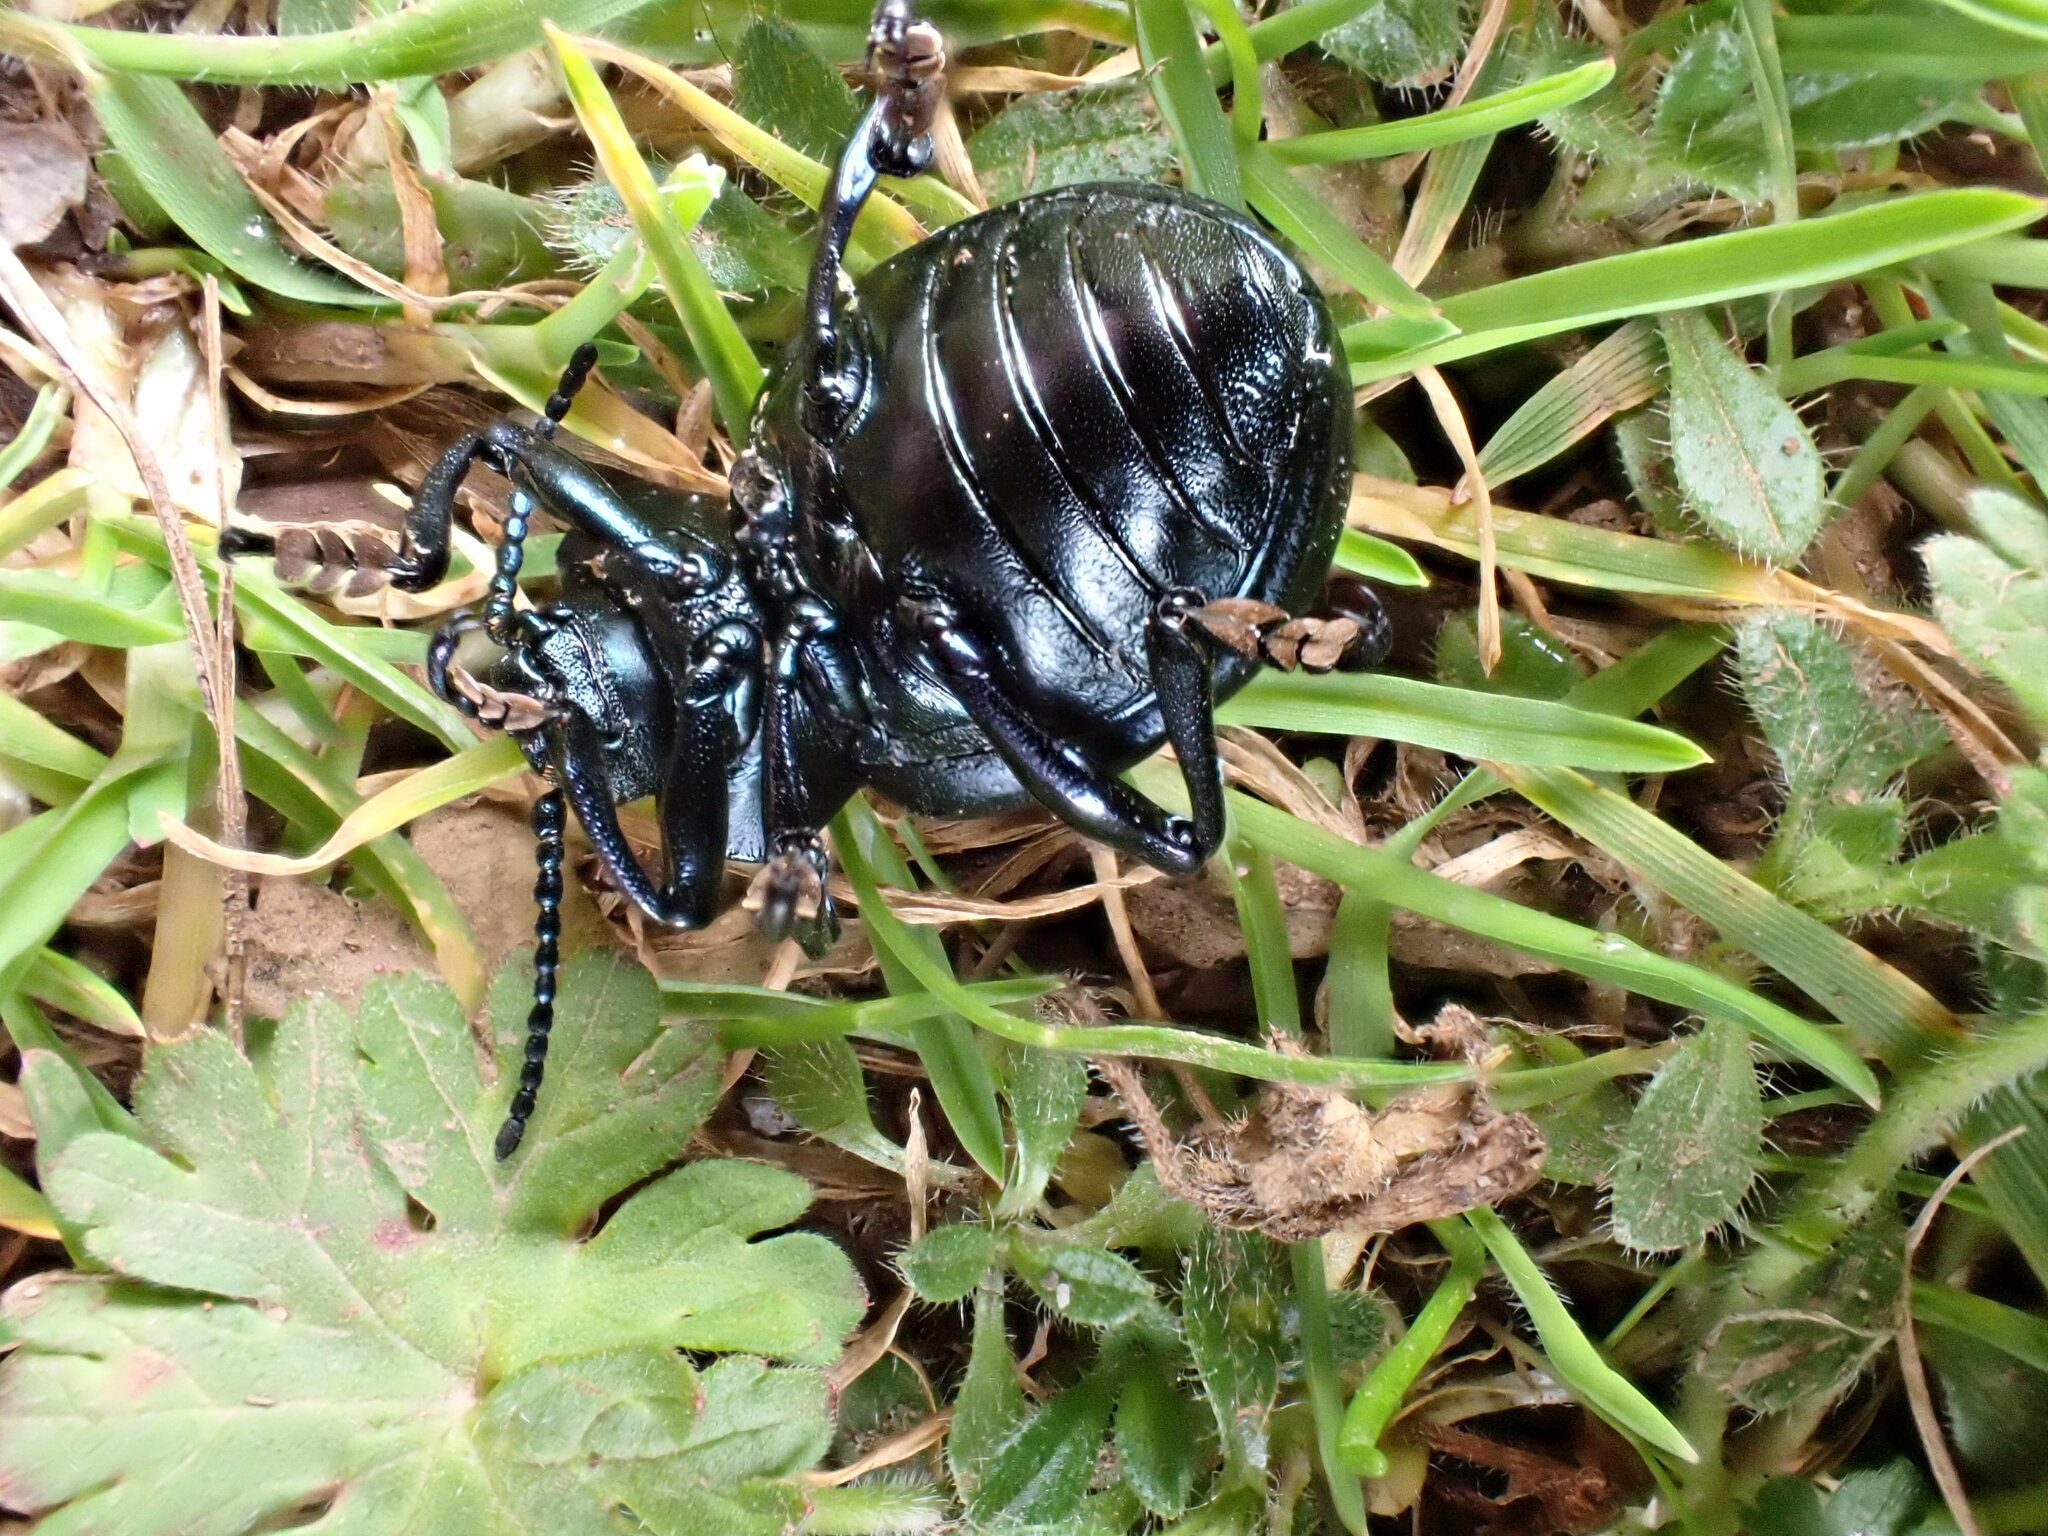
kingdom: Animalia
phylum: Arthropoda
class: Insecta
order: Coleoptera
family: Chrysomelidae
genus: Timarcha
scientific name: Timarcha tenebricosa
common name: Bloody-nosed beetle
